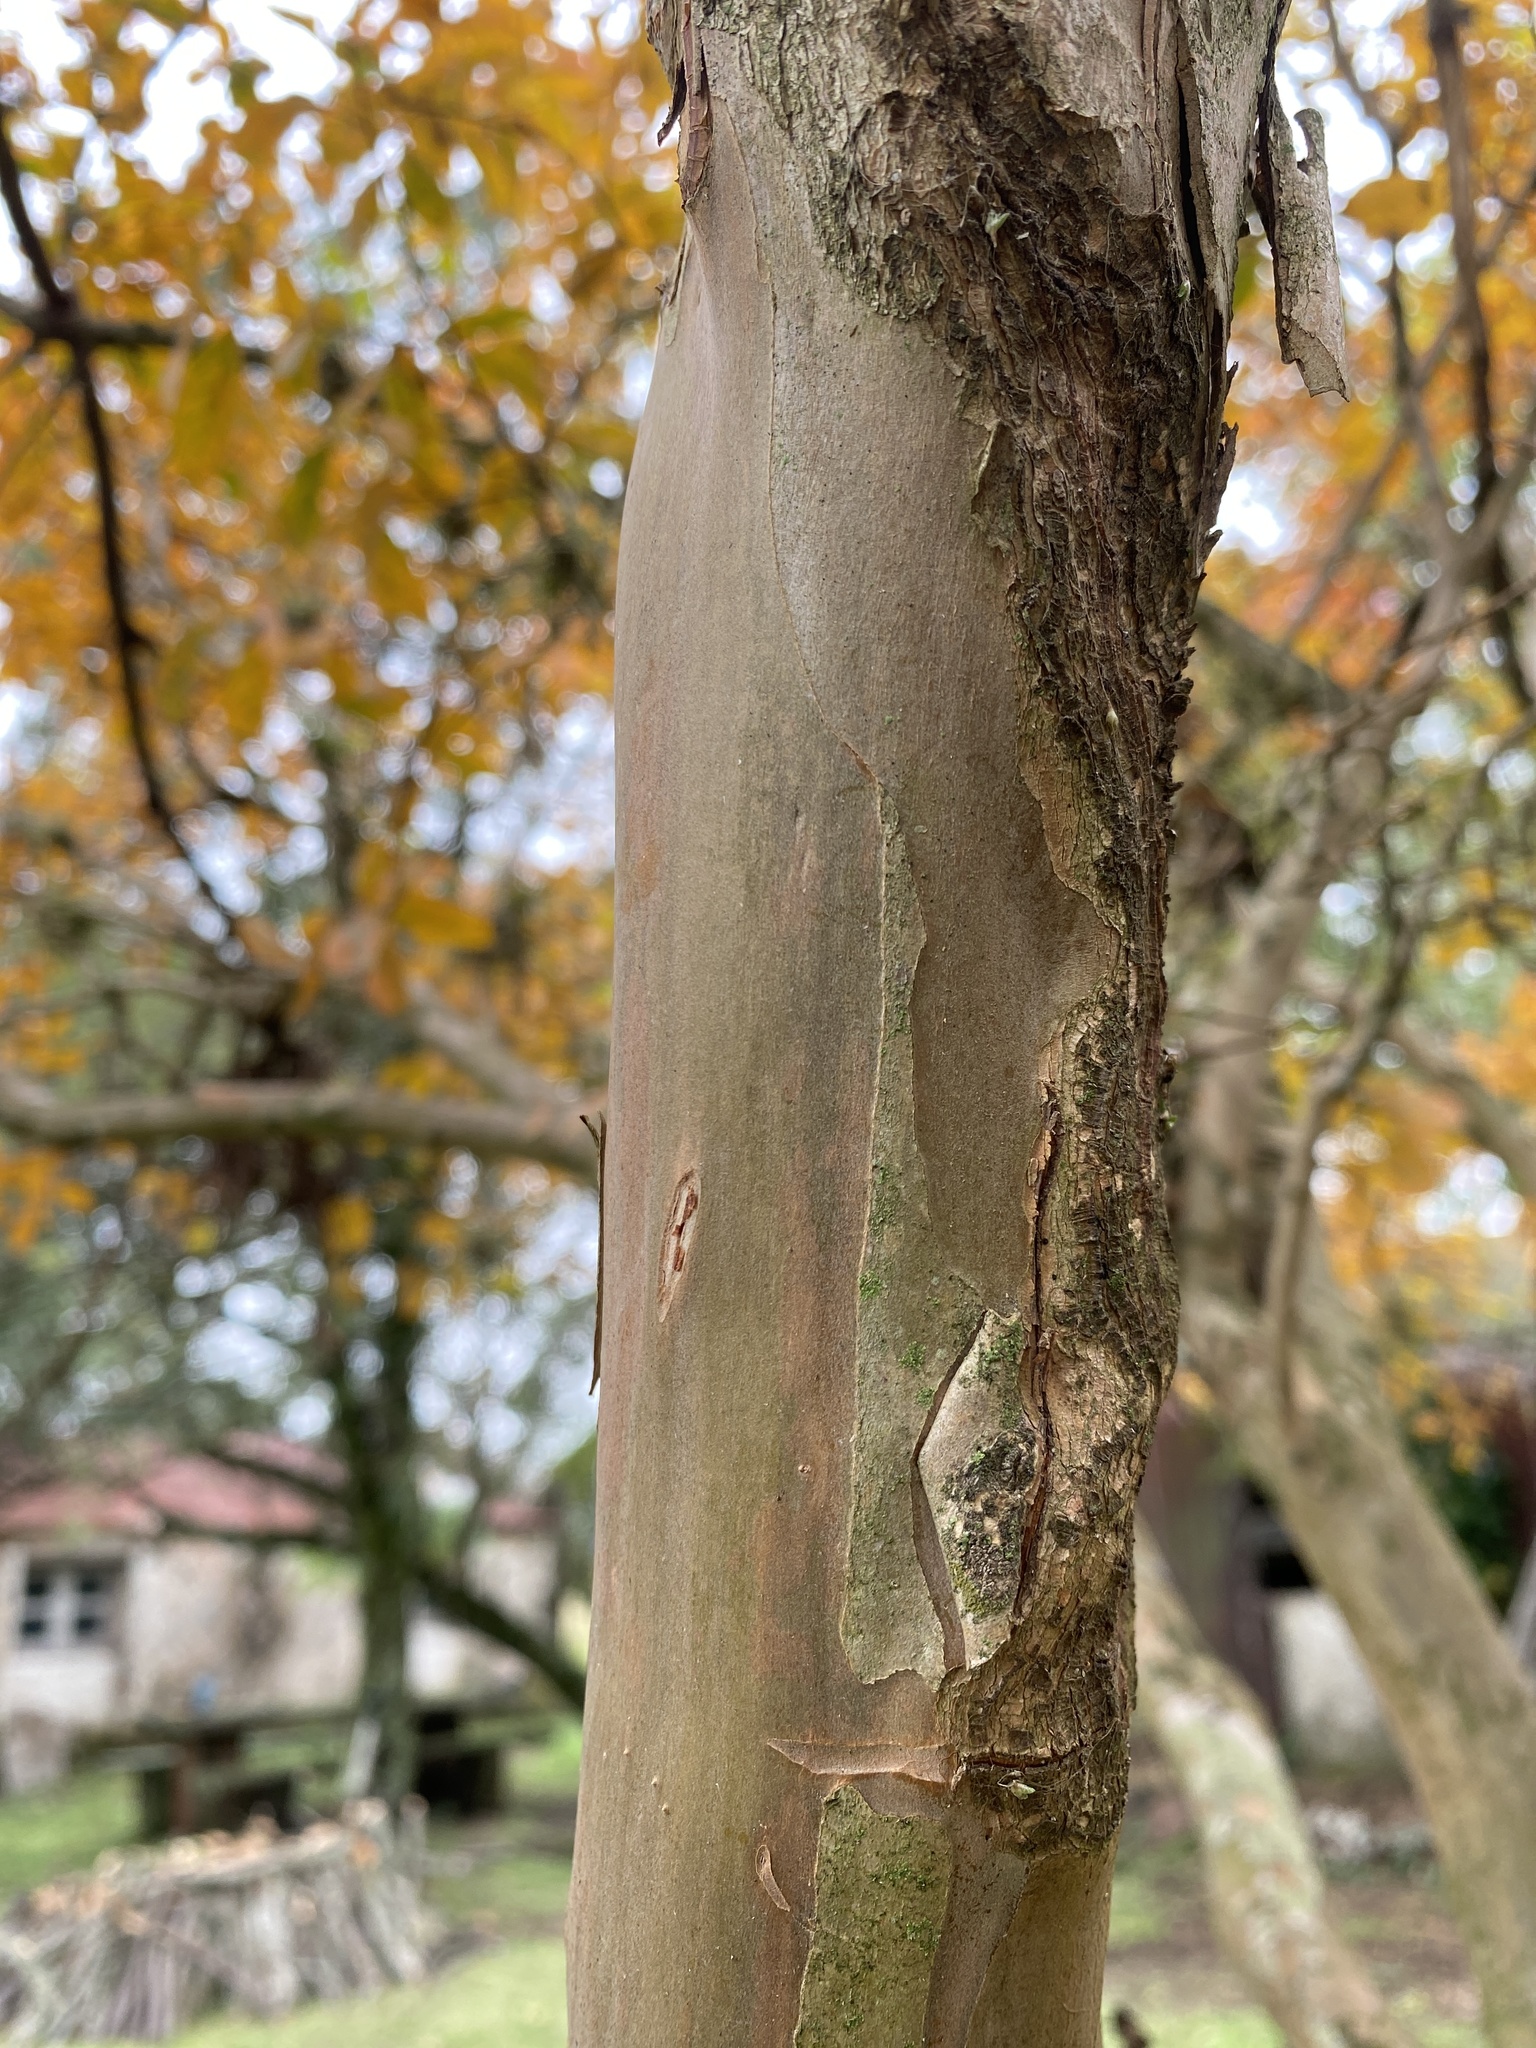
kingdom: Plantae
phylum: Tracheophyta
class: Magnoliopsida
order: Myrtales
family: Lythraceae
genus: Lagerstroemia
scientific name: Lagerstroemia indica
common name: Crape-myrtle
